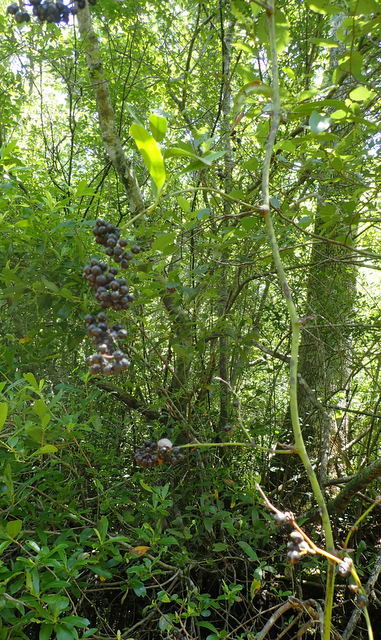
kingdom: Plantae
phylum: Tracheophyta
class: Liliopsida
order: Liliales
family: Smilacaceae
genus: Smilax
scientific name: Smilax laurifolia
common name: Bamboovine
